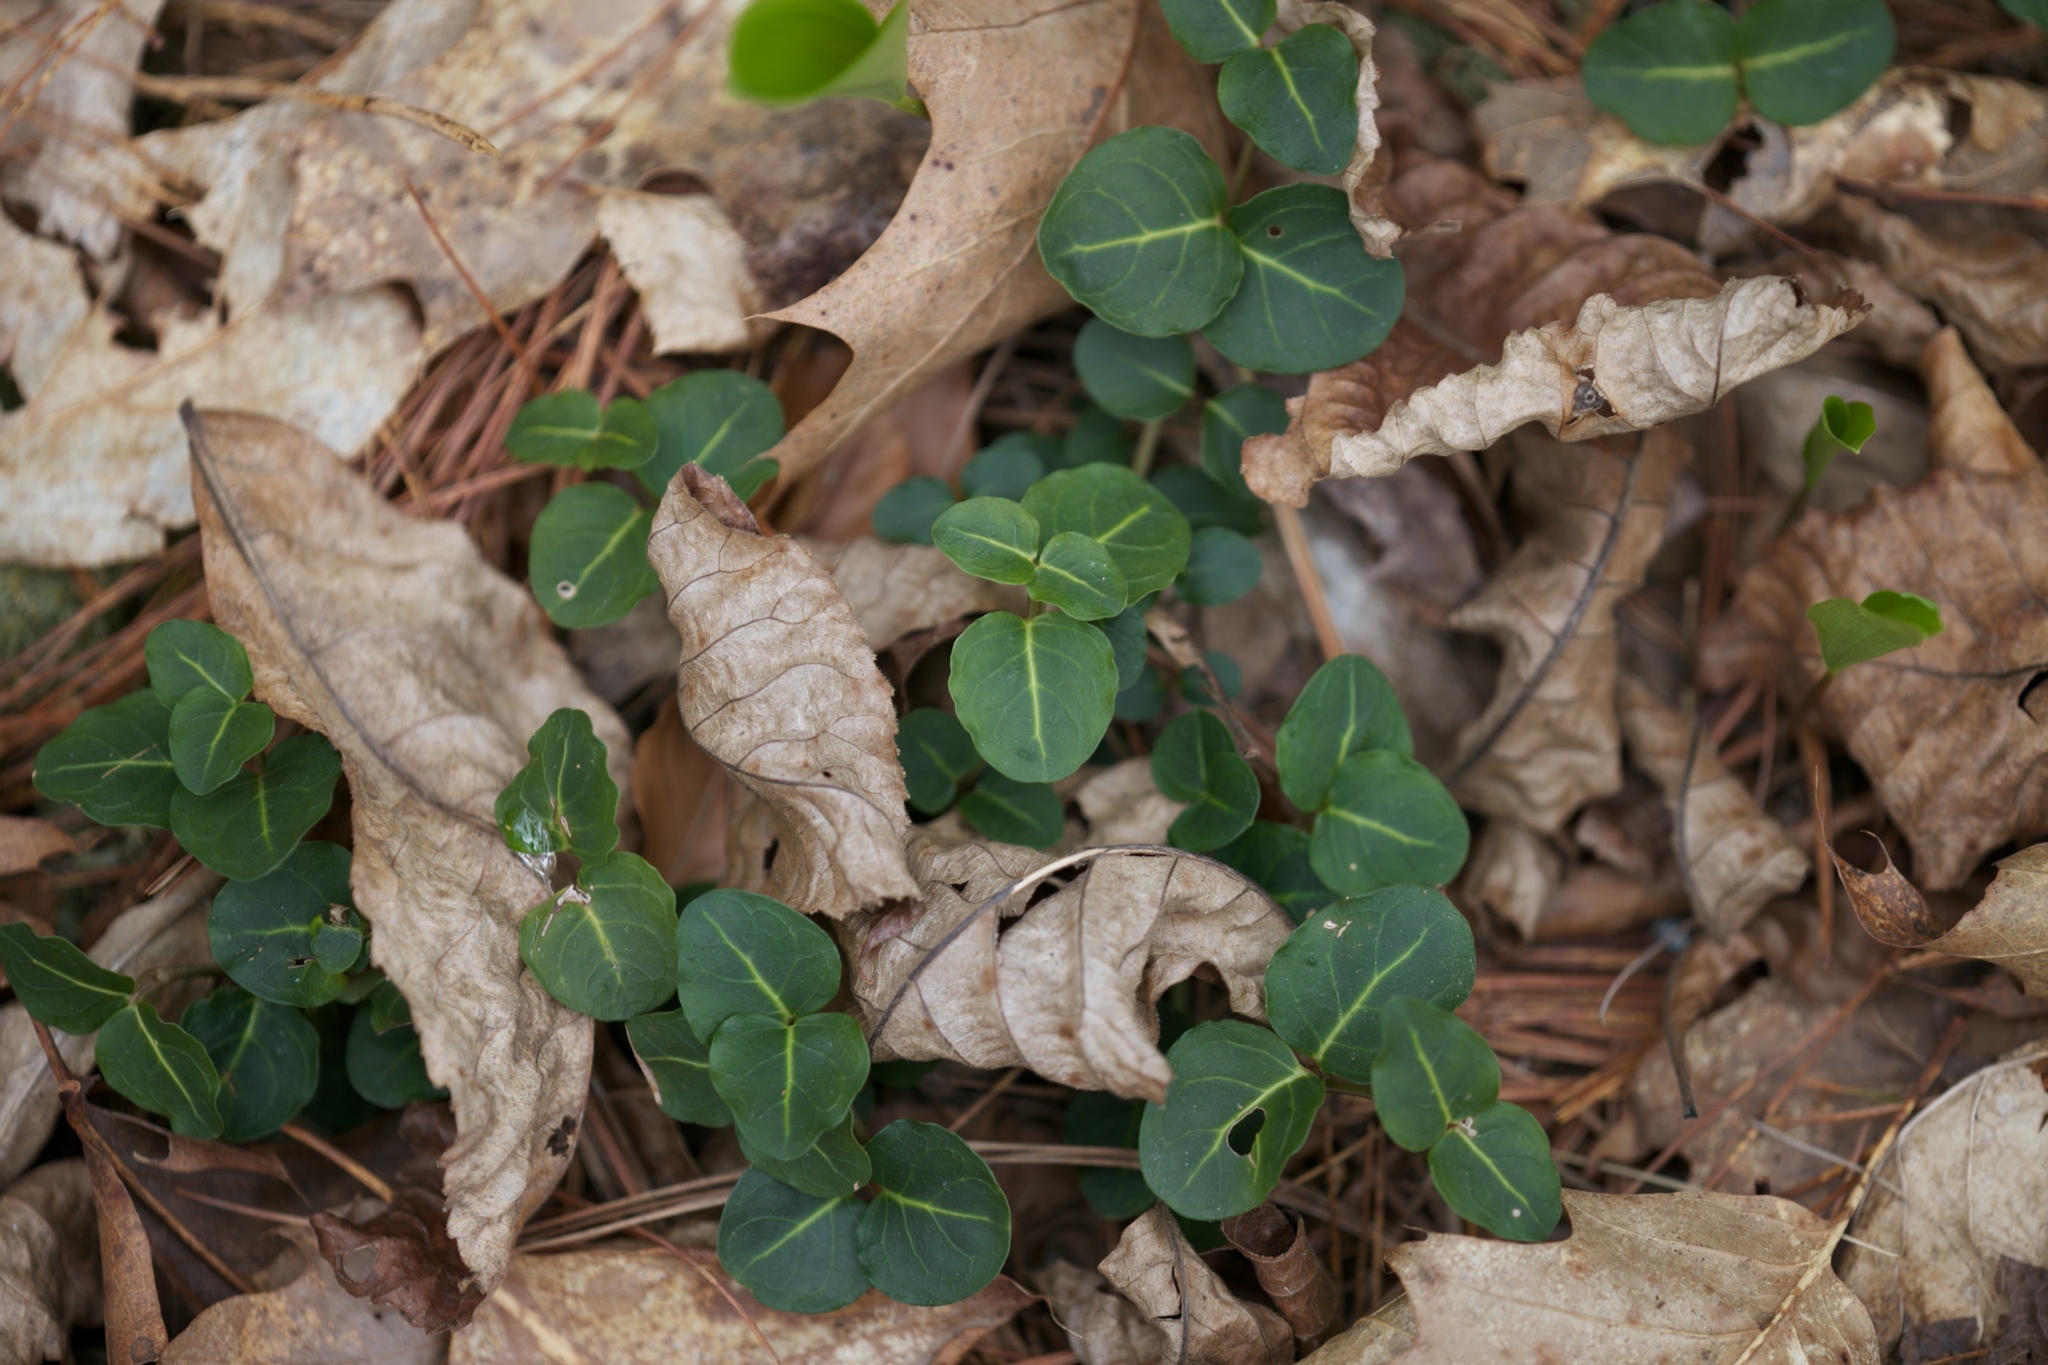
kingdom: Plantae
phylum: Tracheophyta
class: Magnoliopsida
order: Gentianales
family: Rubiaceae
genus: Mitchella
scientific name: Mitchella repens
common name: Partridge-berry
